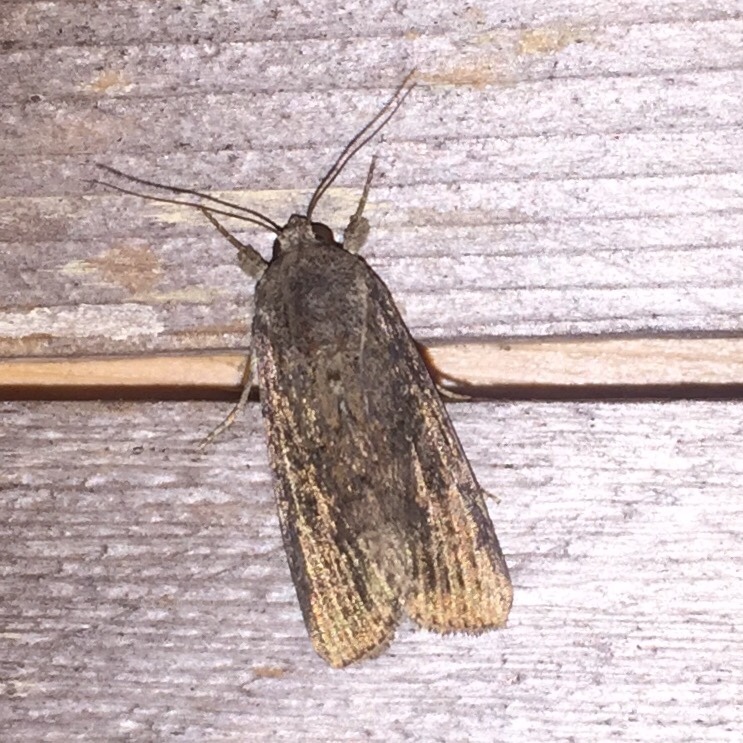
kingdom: Animalia
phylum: Arthropoda
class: Insecta
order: Lepidoptera
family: Noctuidae
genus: Spodoptera
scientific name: Spodoptera frugiperda
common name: Fall armyworm
